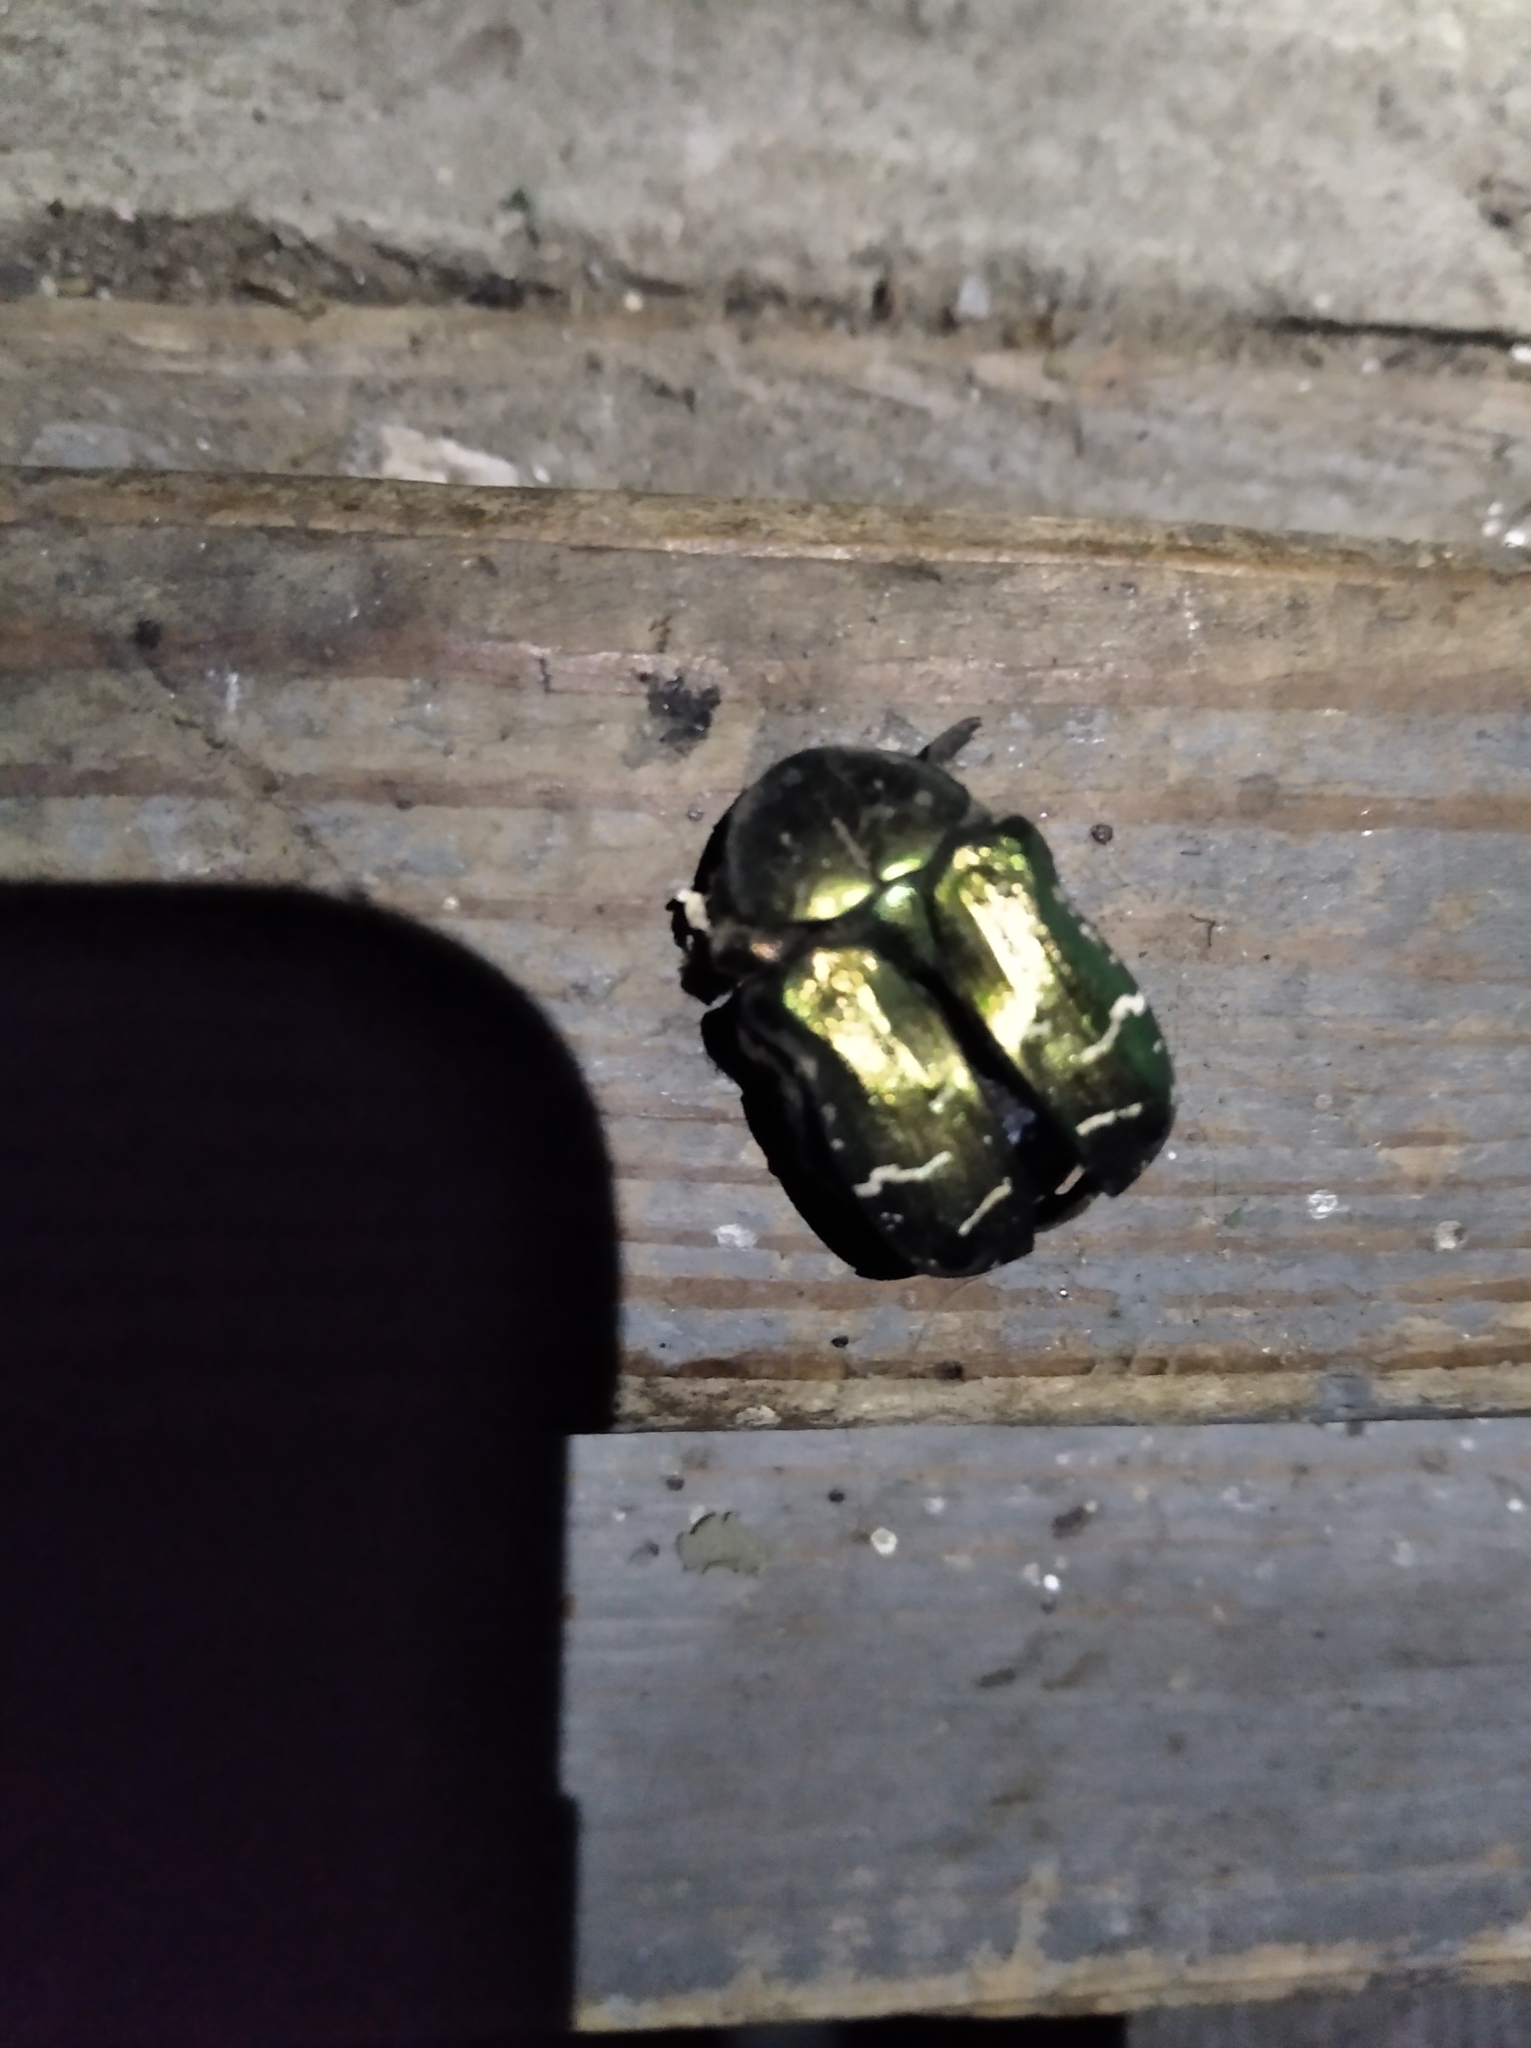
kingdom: Animalia
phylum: Arthropoda
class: Insecta
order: Coleoptera
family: Scarabaeidae
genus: Cetonia
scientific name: Cetonia aurata
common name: Rose chafer
